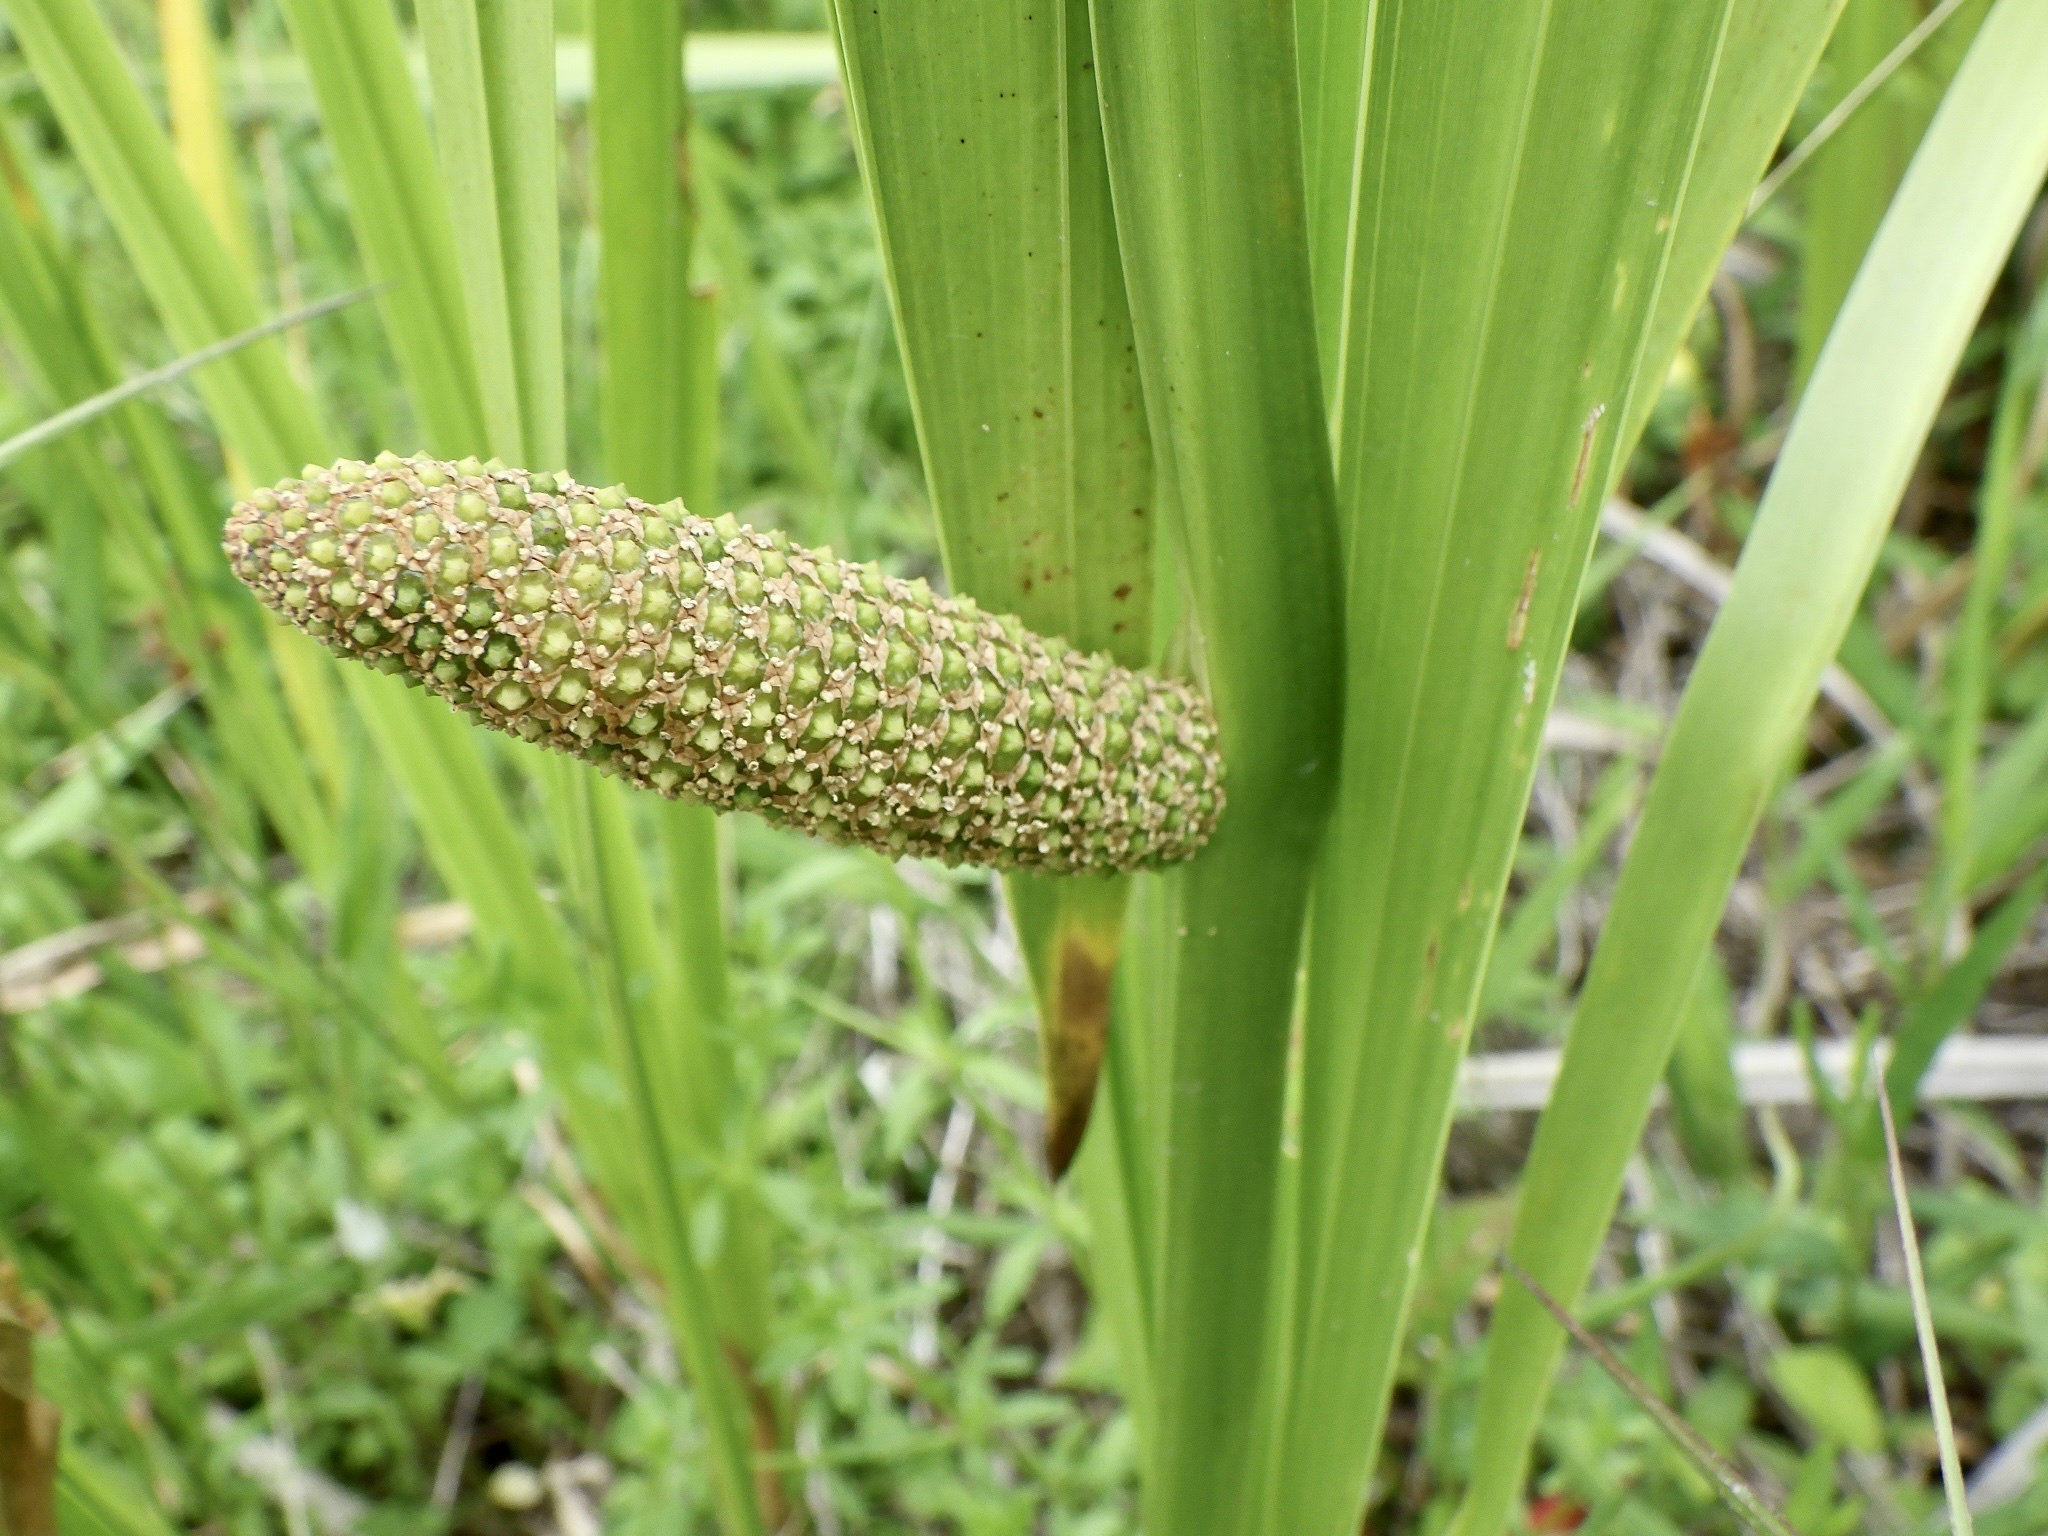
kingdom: Plantae
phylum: Tracheophyta
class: Liliopsida
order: Acorales
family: Acoraceae
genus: Acorus
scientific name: Acorus calamus
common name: Sweet-flag
